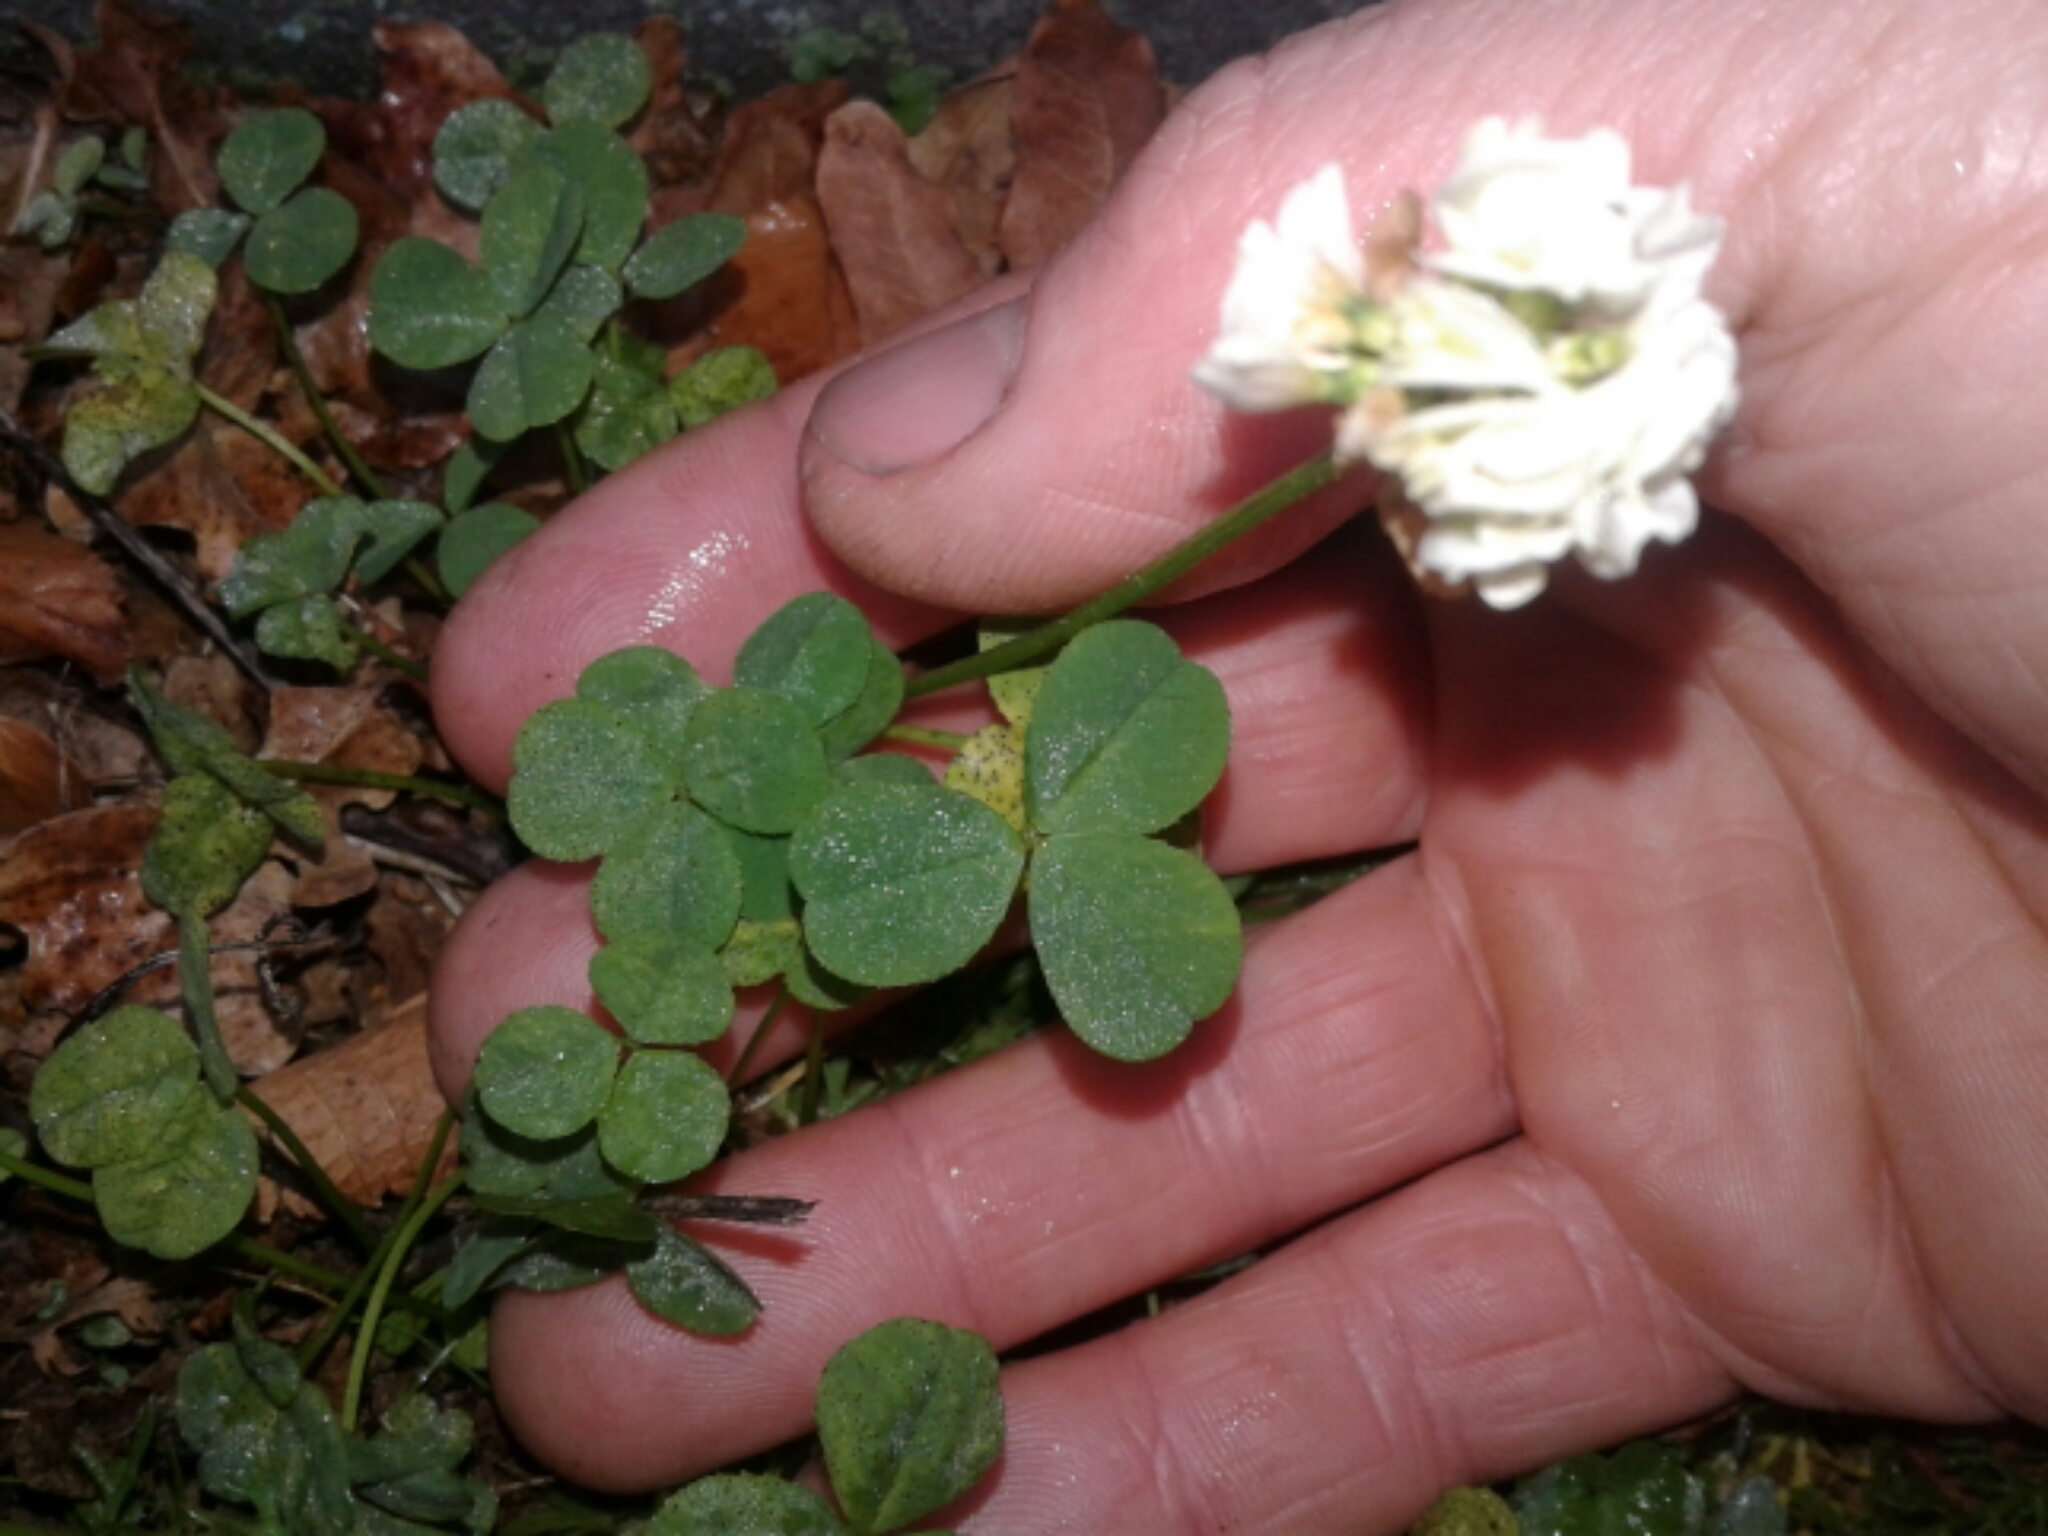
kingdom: Plantae
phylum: Tracheophyta
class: Magnoliopsida
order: Fabales
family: Fabaceae
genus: Trifolium
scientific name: Trifolium repens
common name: White clover
